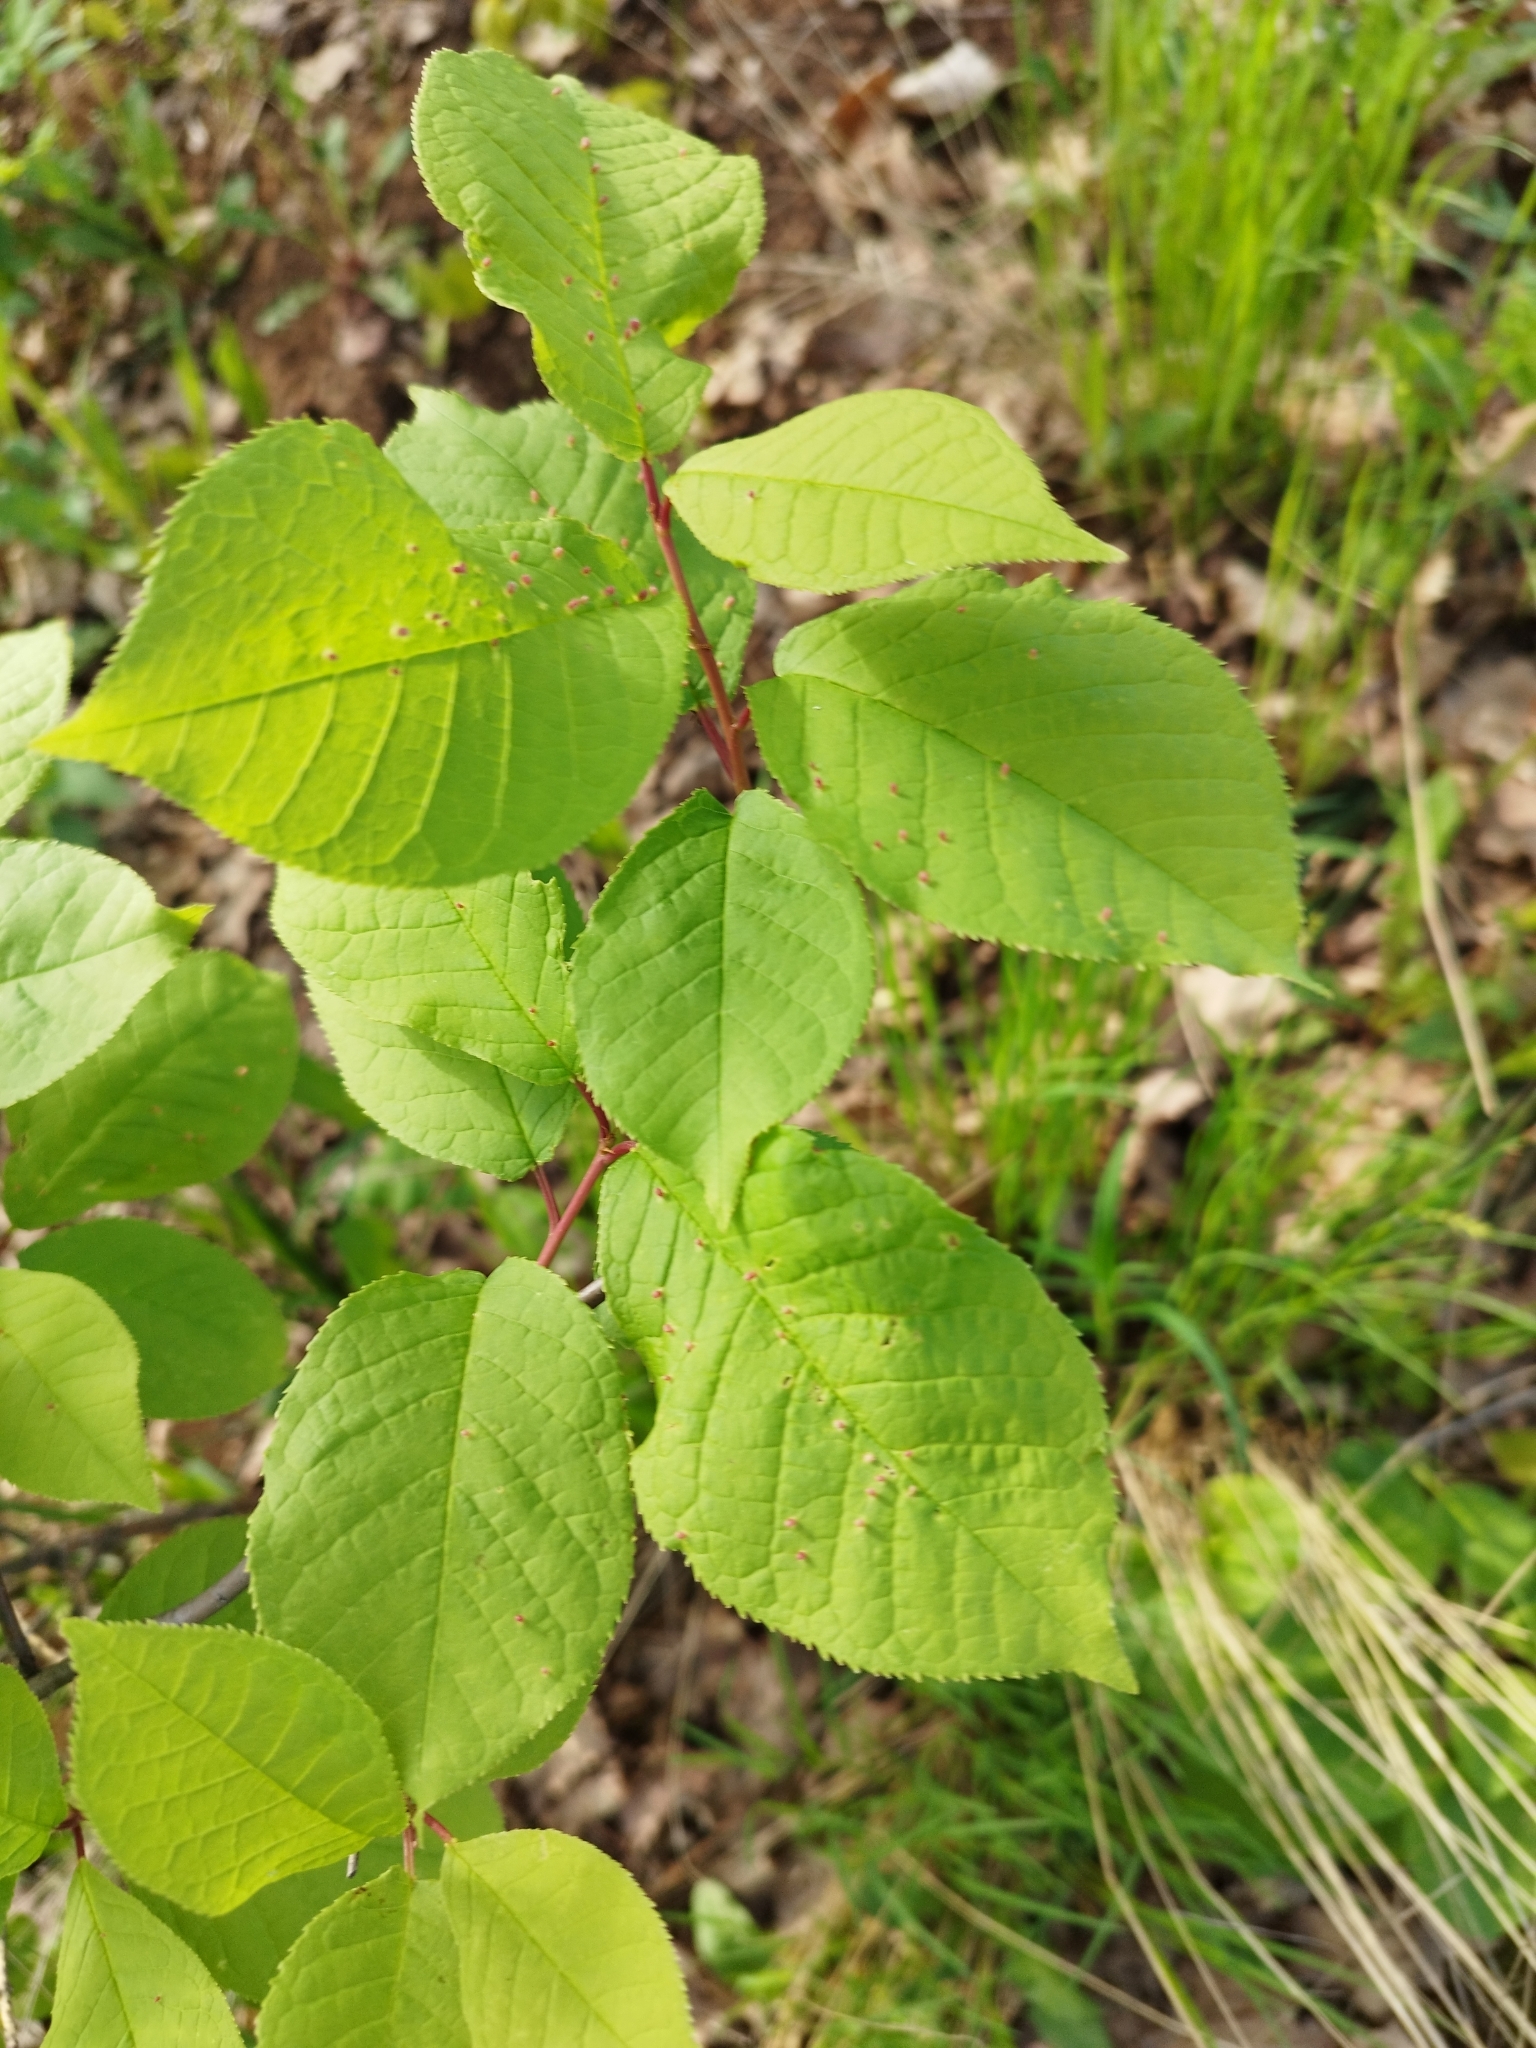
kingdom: Plantae
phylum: Tracheophyta
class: Magnoliopsida
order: Rosales
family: Rosaceae
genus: Prunus
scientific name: Prunus padus
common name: Bird cherry
